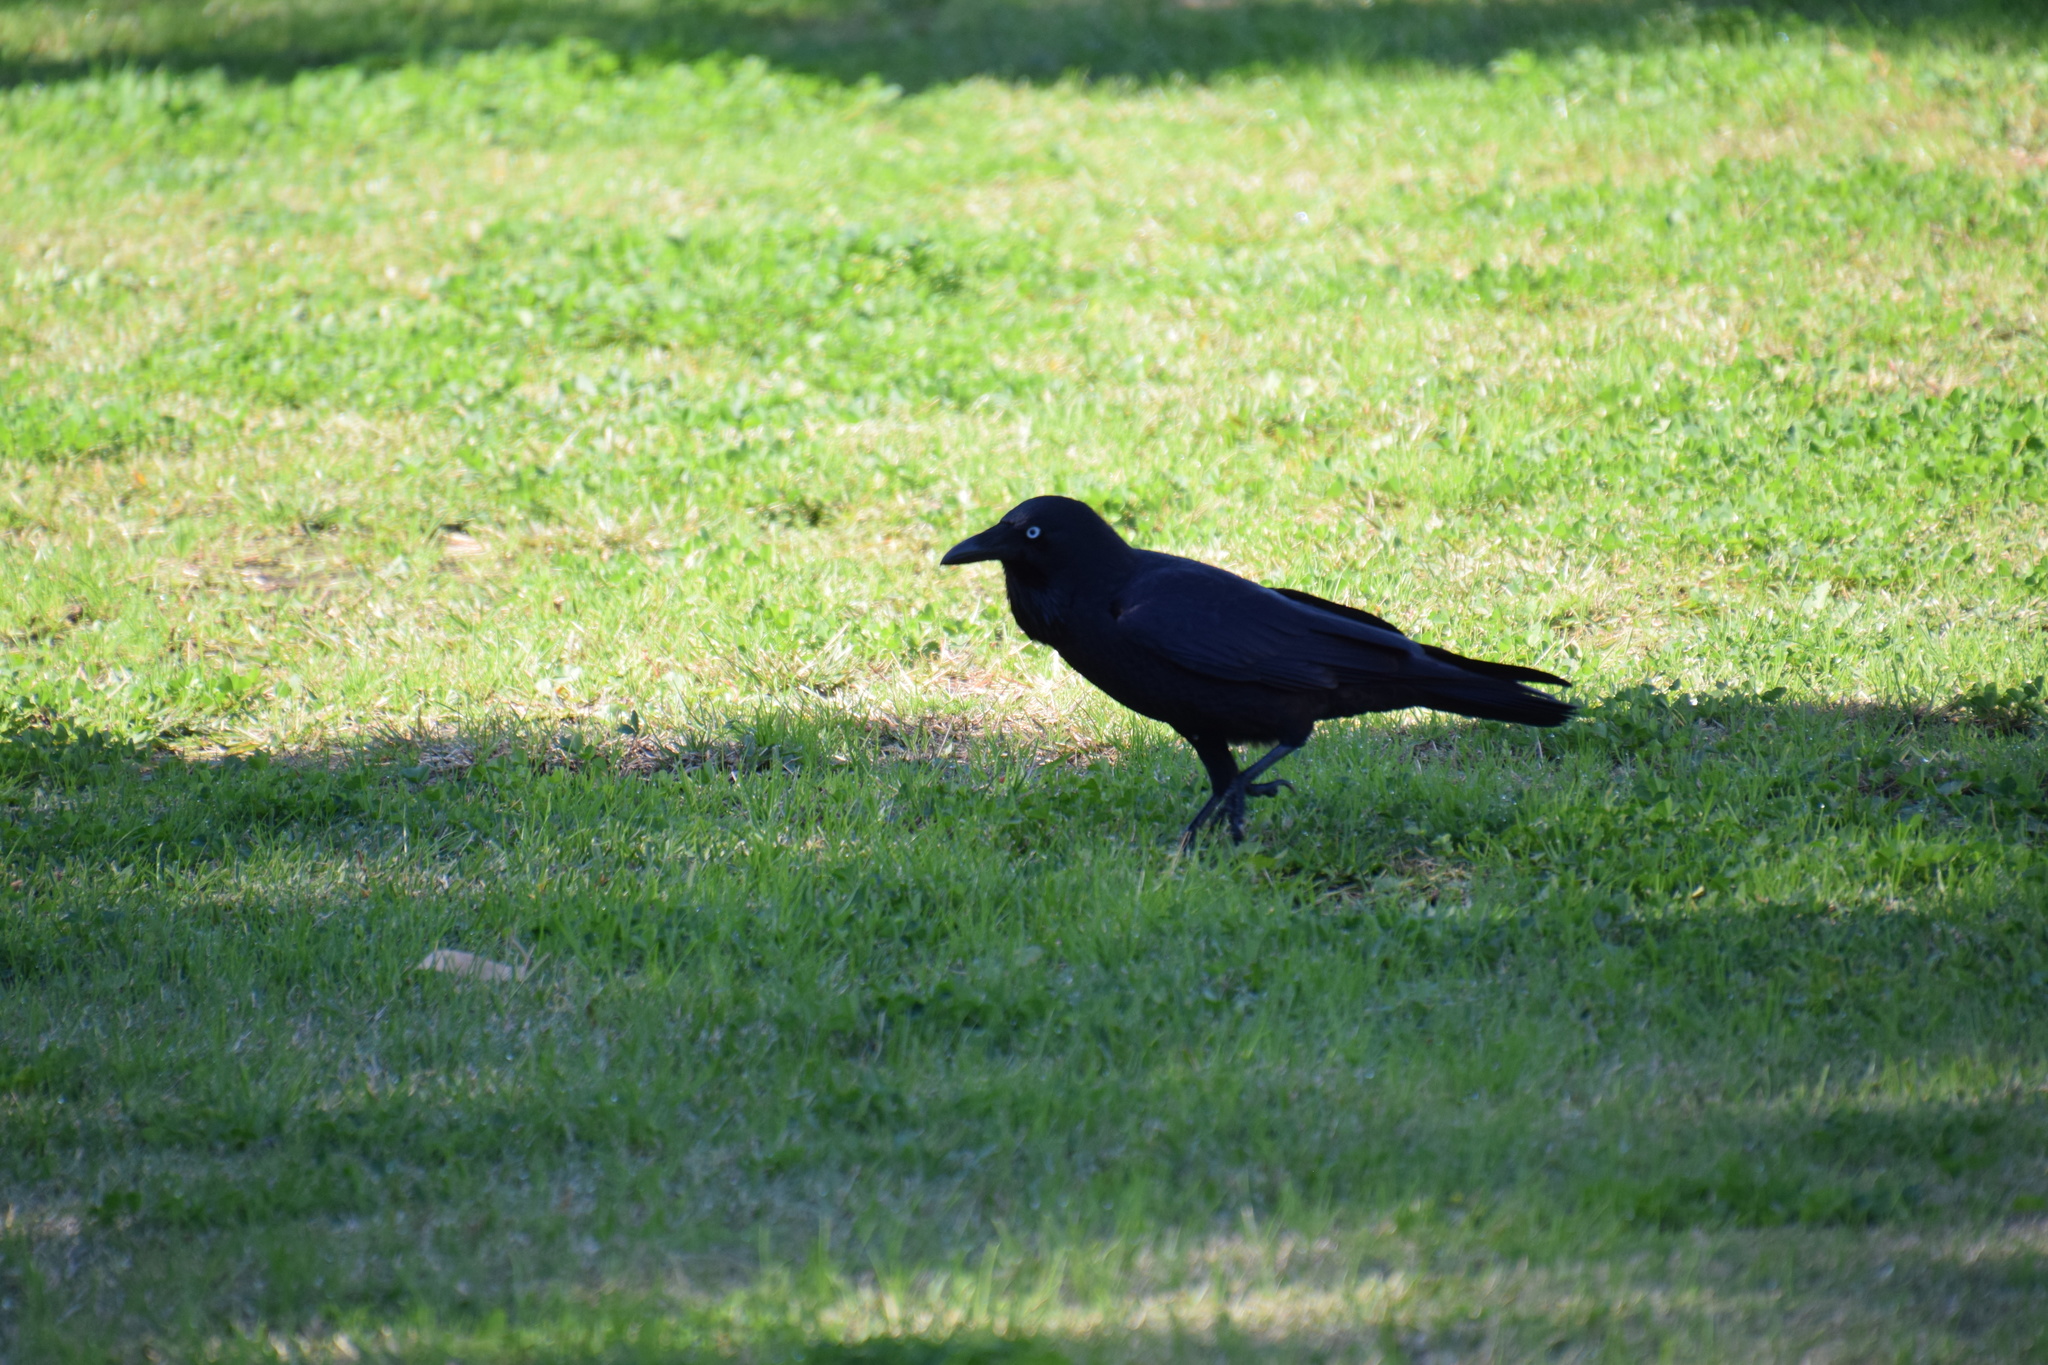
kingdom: Animalia
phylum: Chordata
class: Aves
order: Passeriformes
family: Corvidae
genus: Corvus
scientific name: Corvus coronoides
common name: Australian raven
